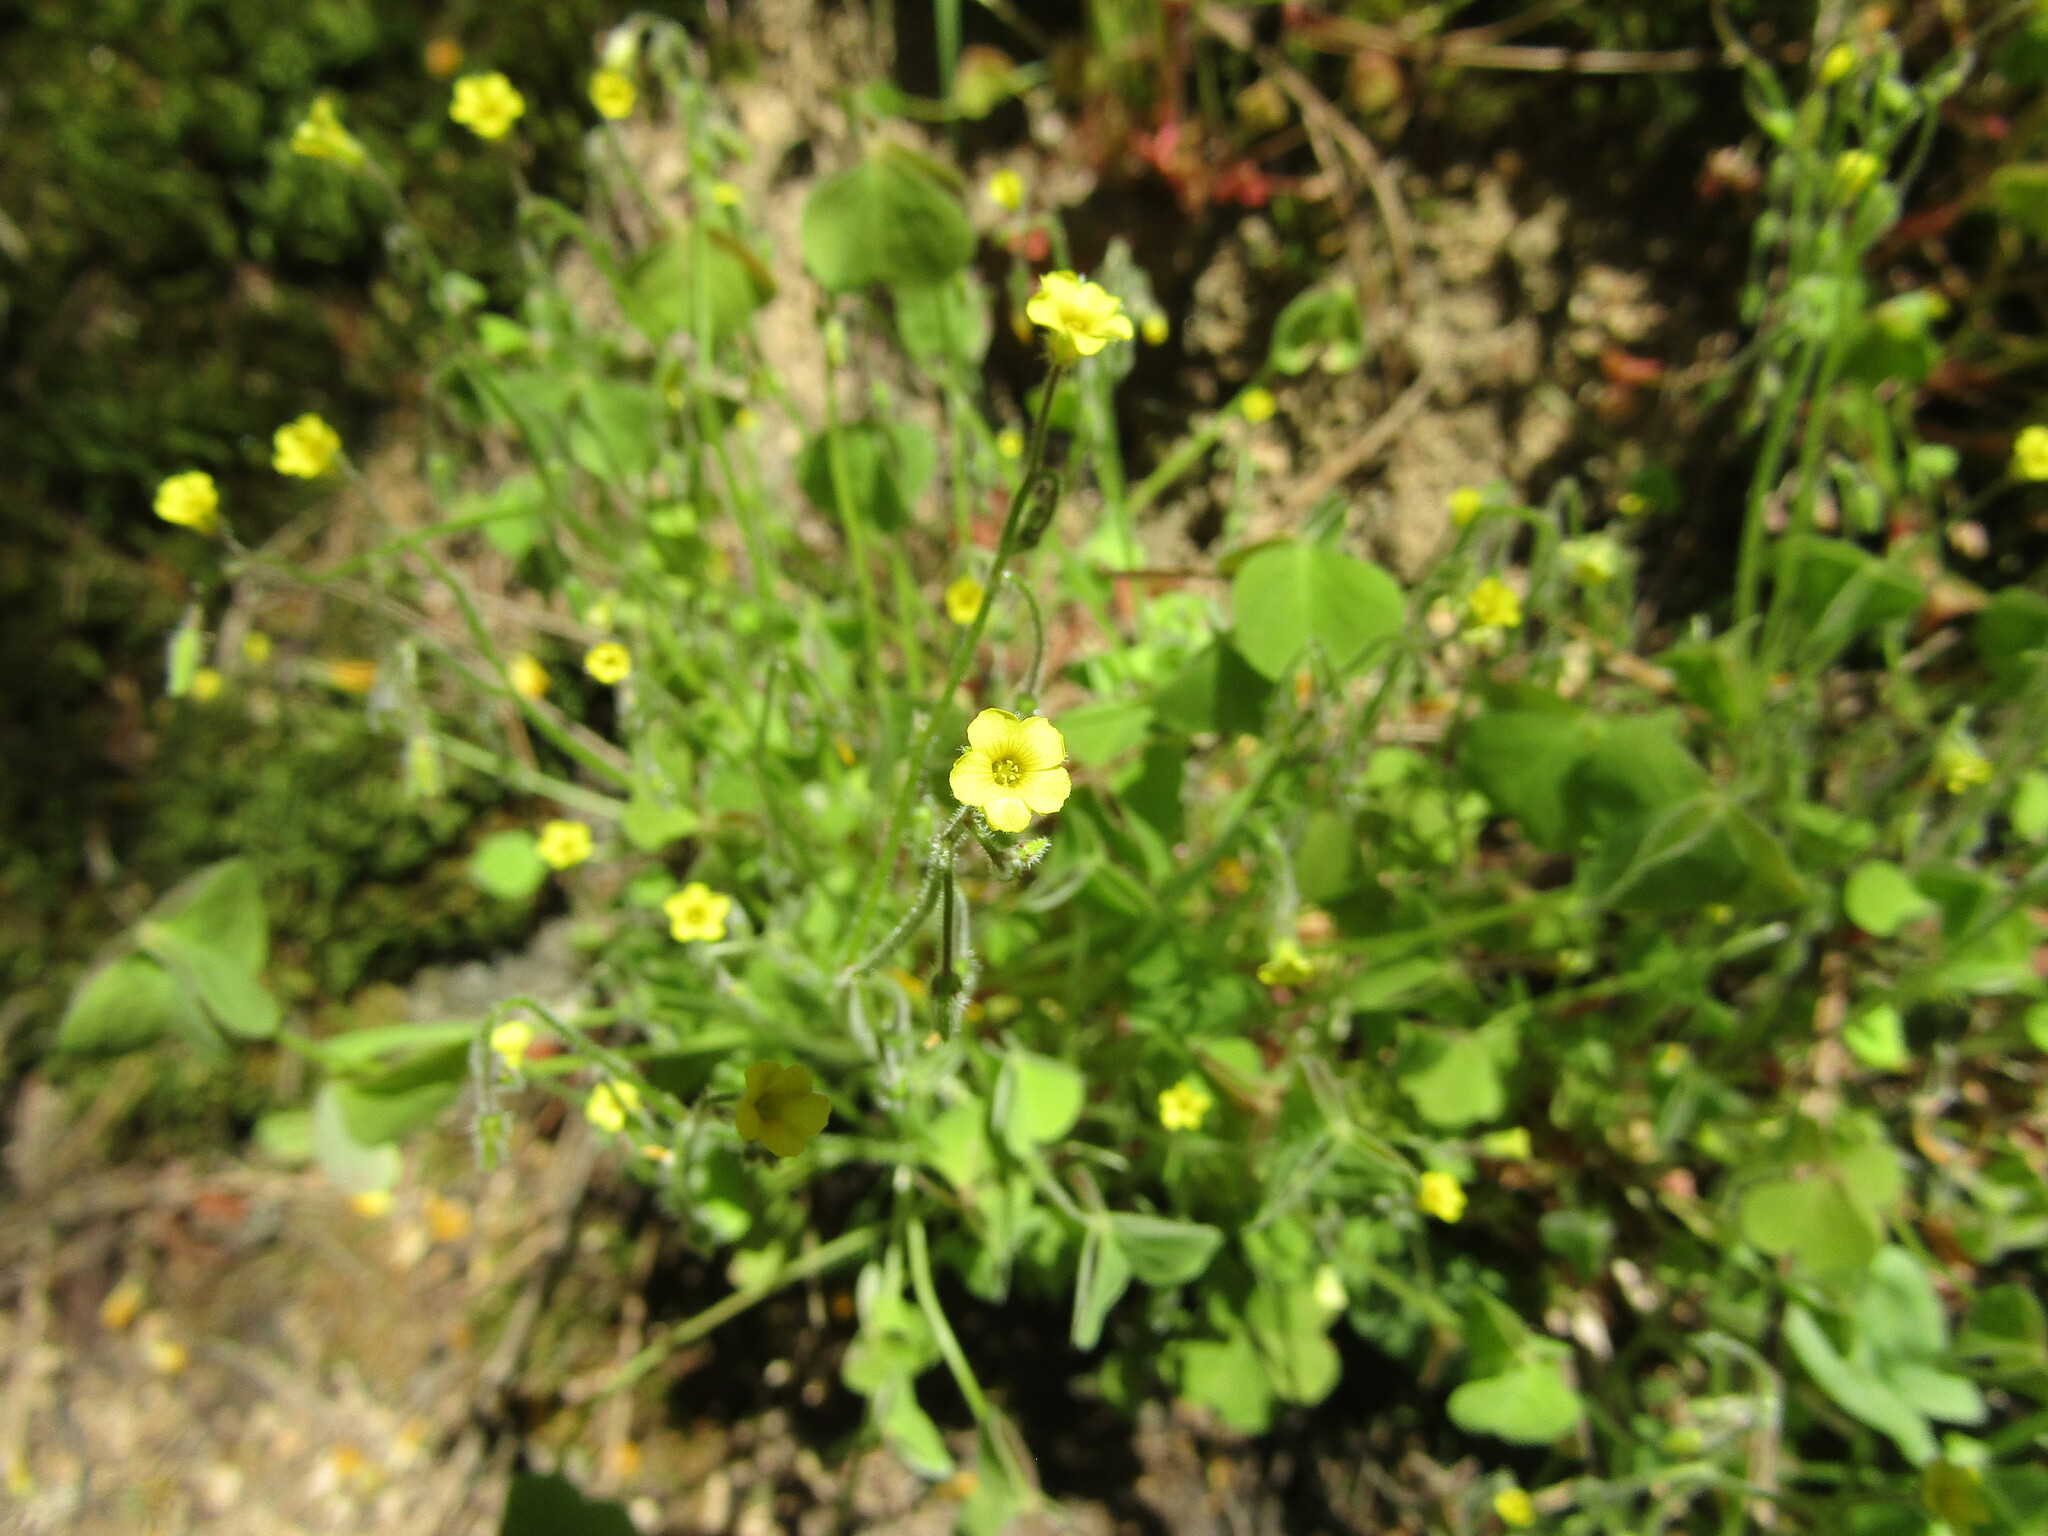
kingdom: Plantae
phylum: Tracheophyta
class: Magnoliopsida
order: Oxalidales
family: Oxalidaceae
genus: Oxalis
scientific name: Oxalis laxa
